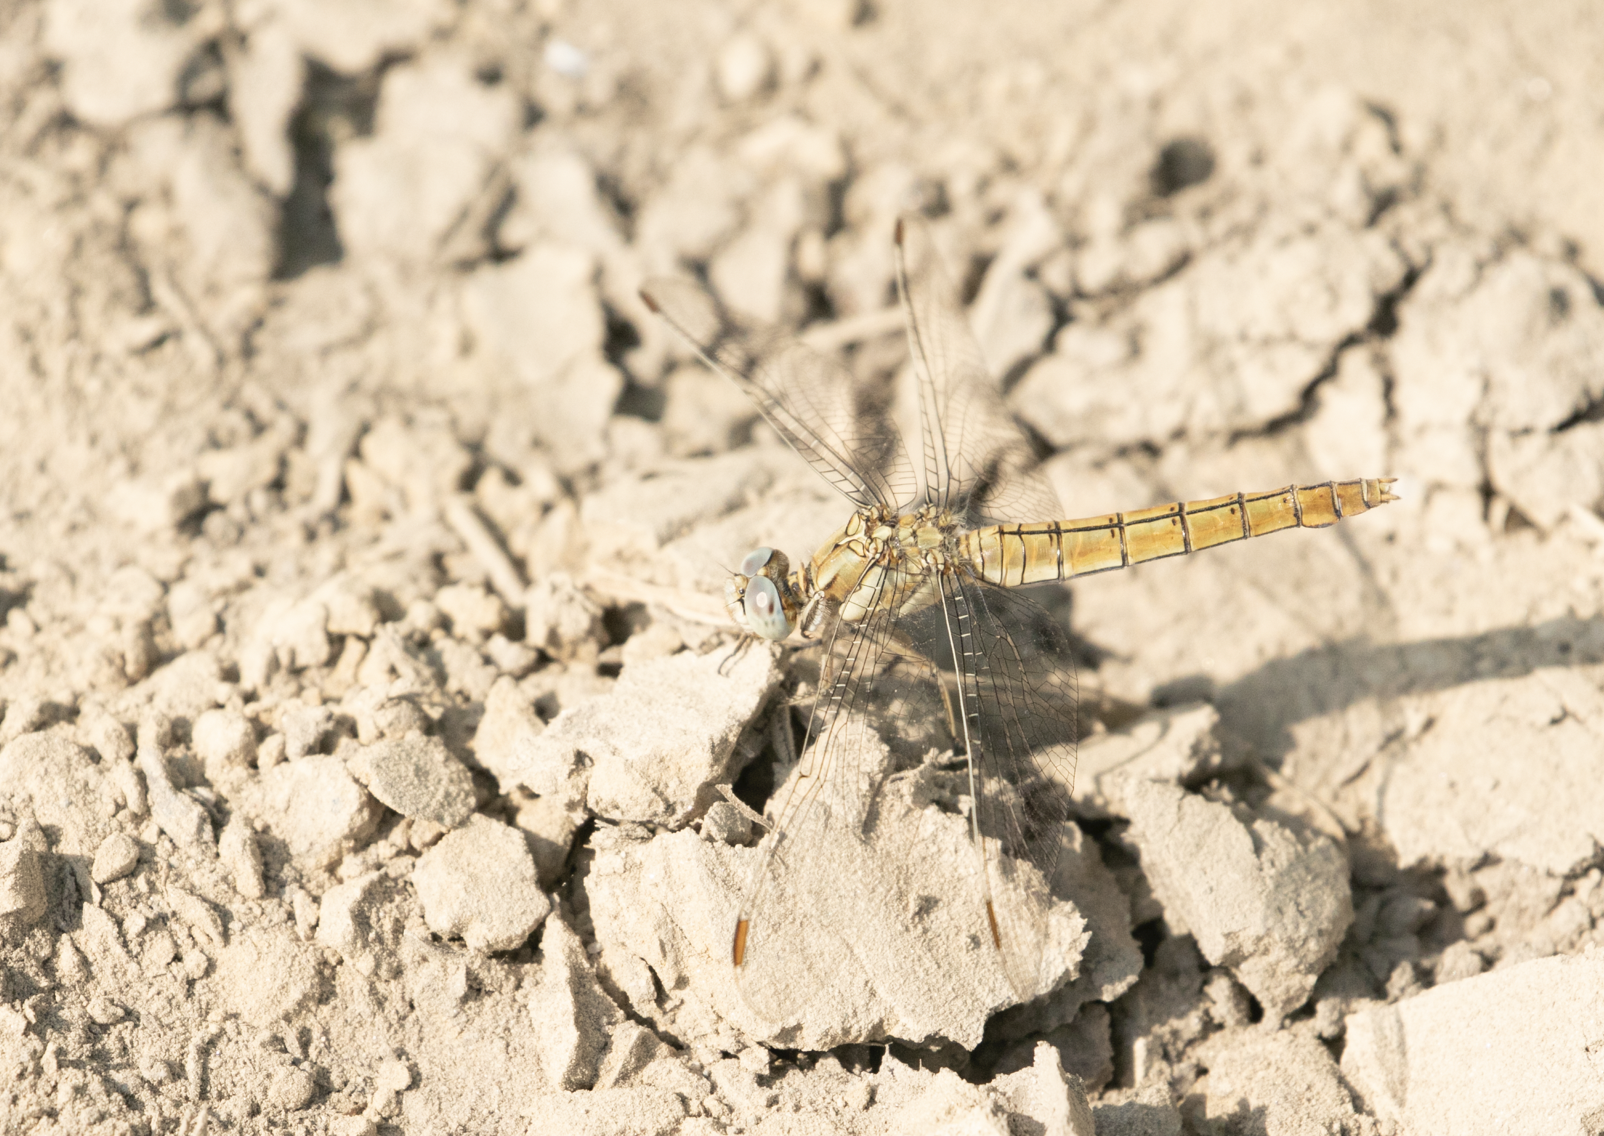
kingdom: Animalia
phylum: Arthropoda
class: Insecta
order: Odonata
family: Libellulidae
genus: Orthetrum
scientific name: Orthetrum brunneum
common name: Southern skimmer
